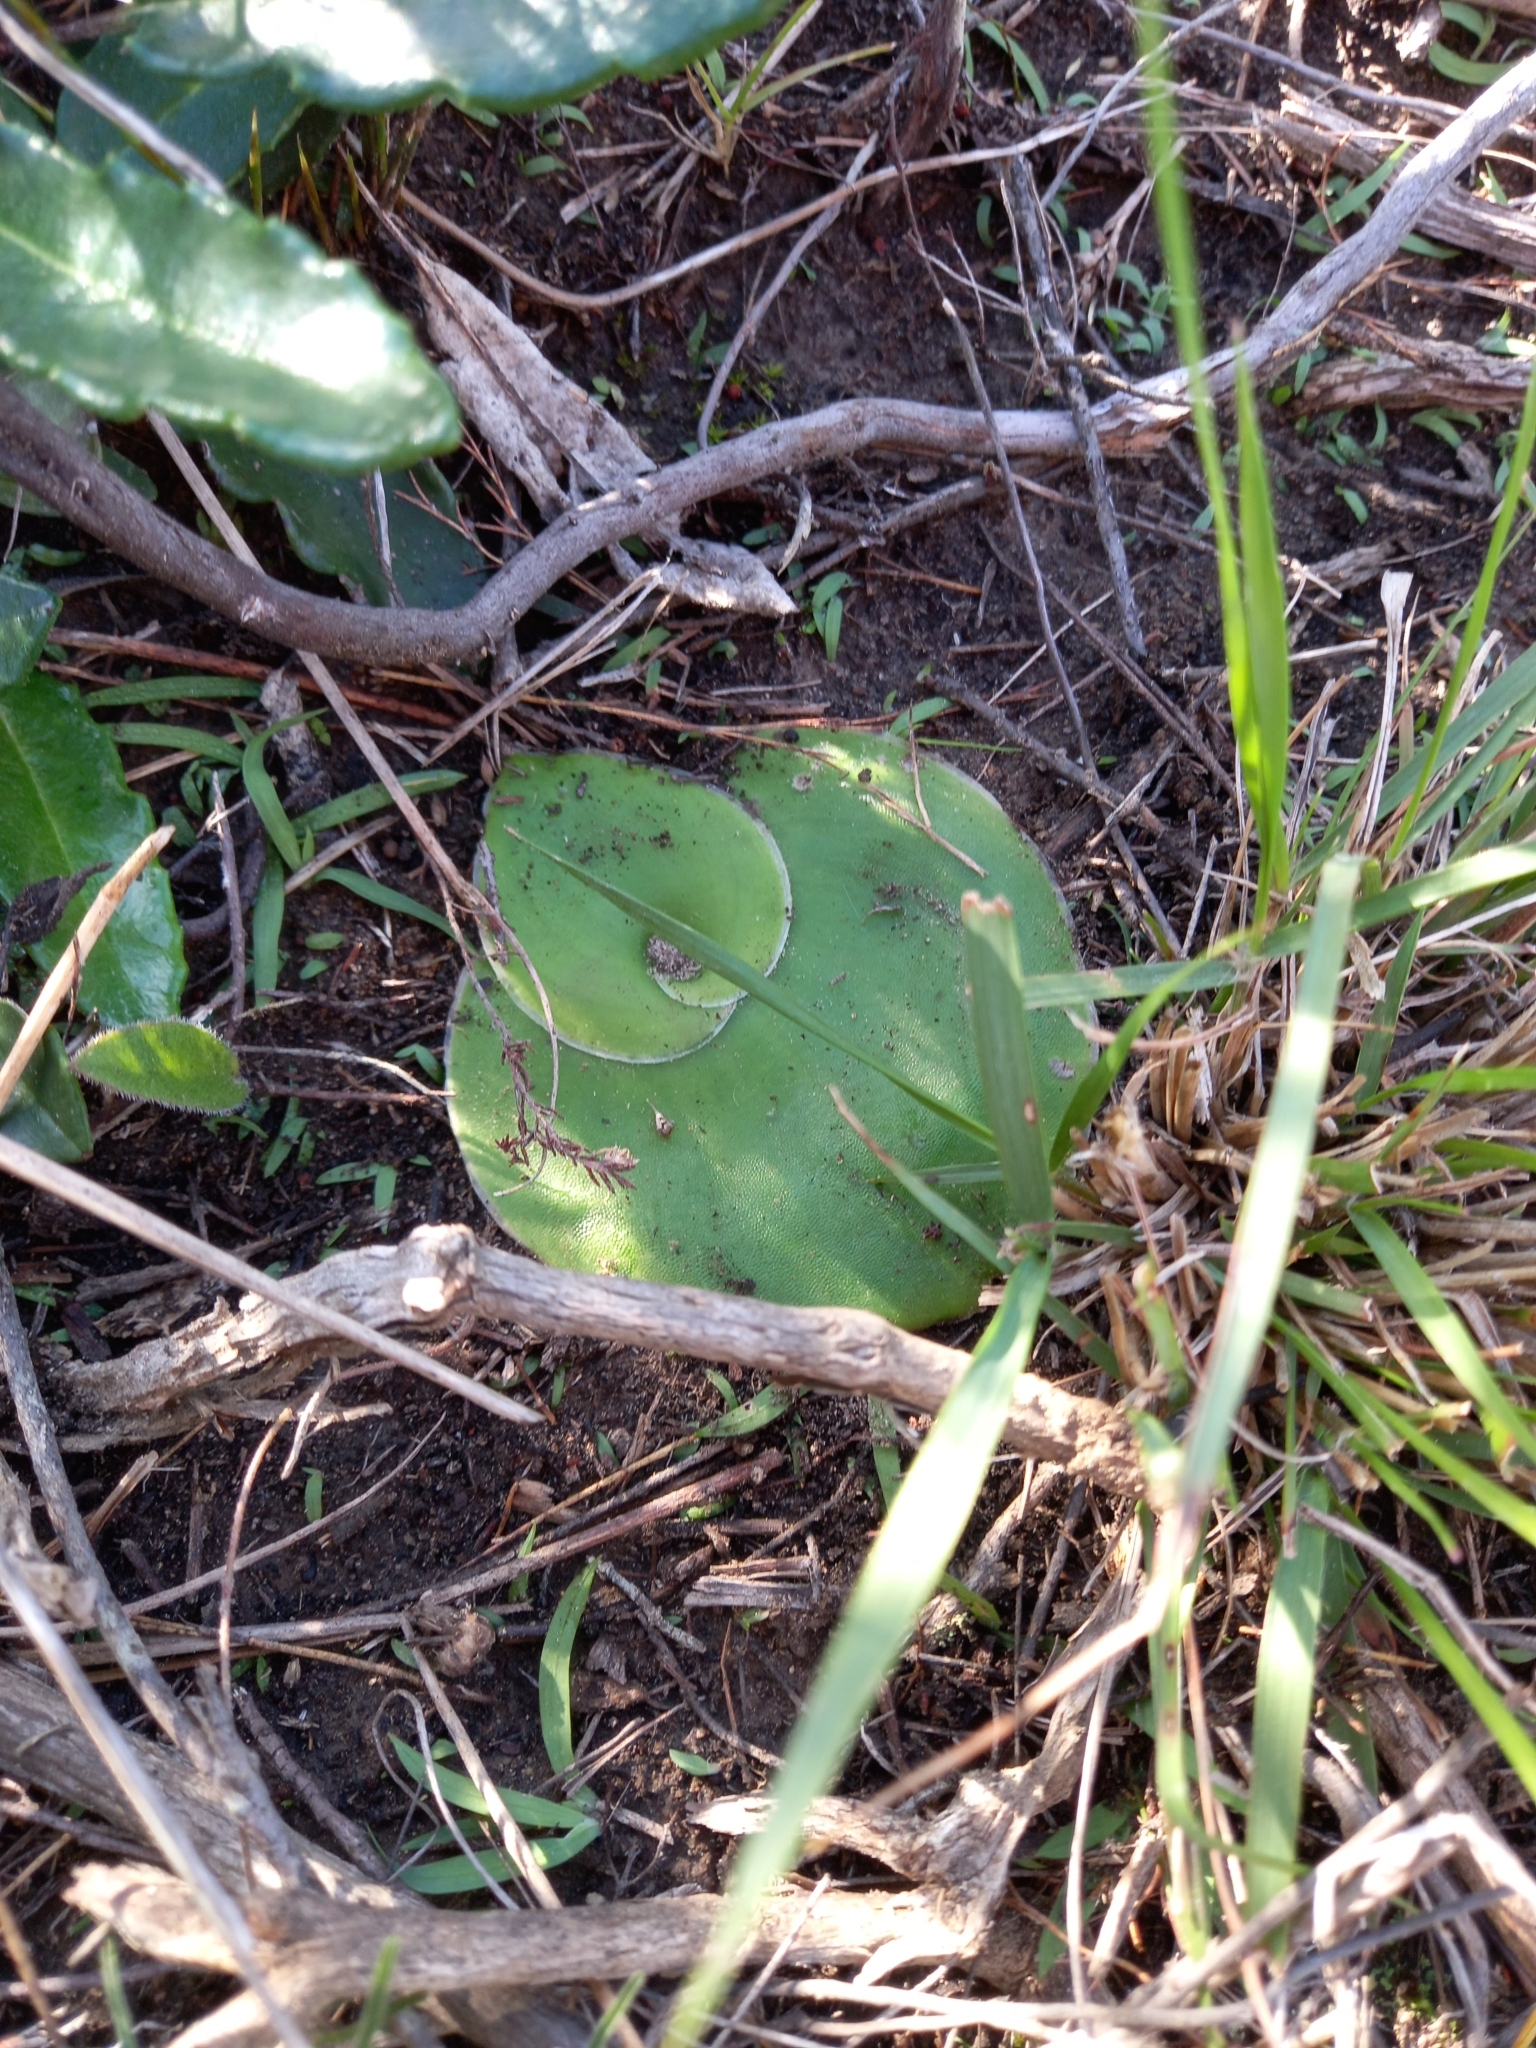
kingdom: Plantae
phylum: Tracheophyta
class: Liliopsida
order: Asparagales
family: Orchidaceae
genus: Satyrium
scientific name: Satyrium longicolle
